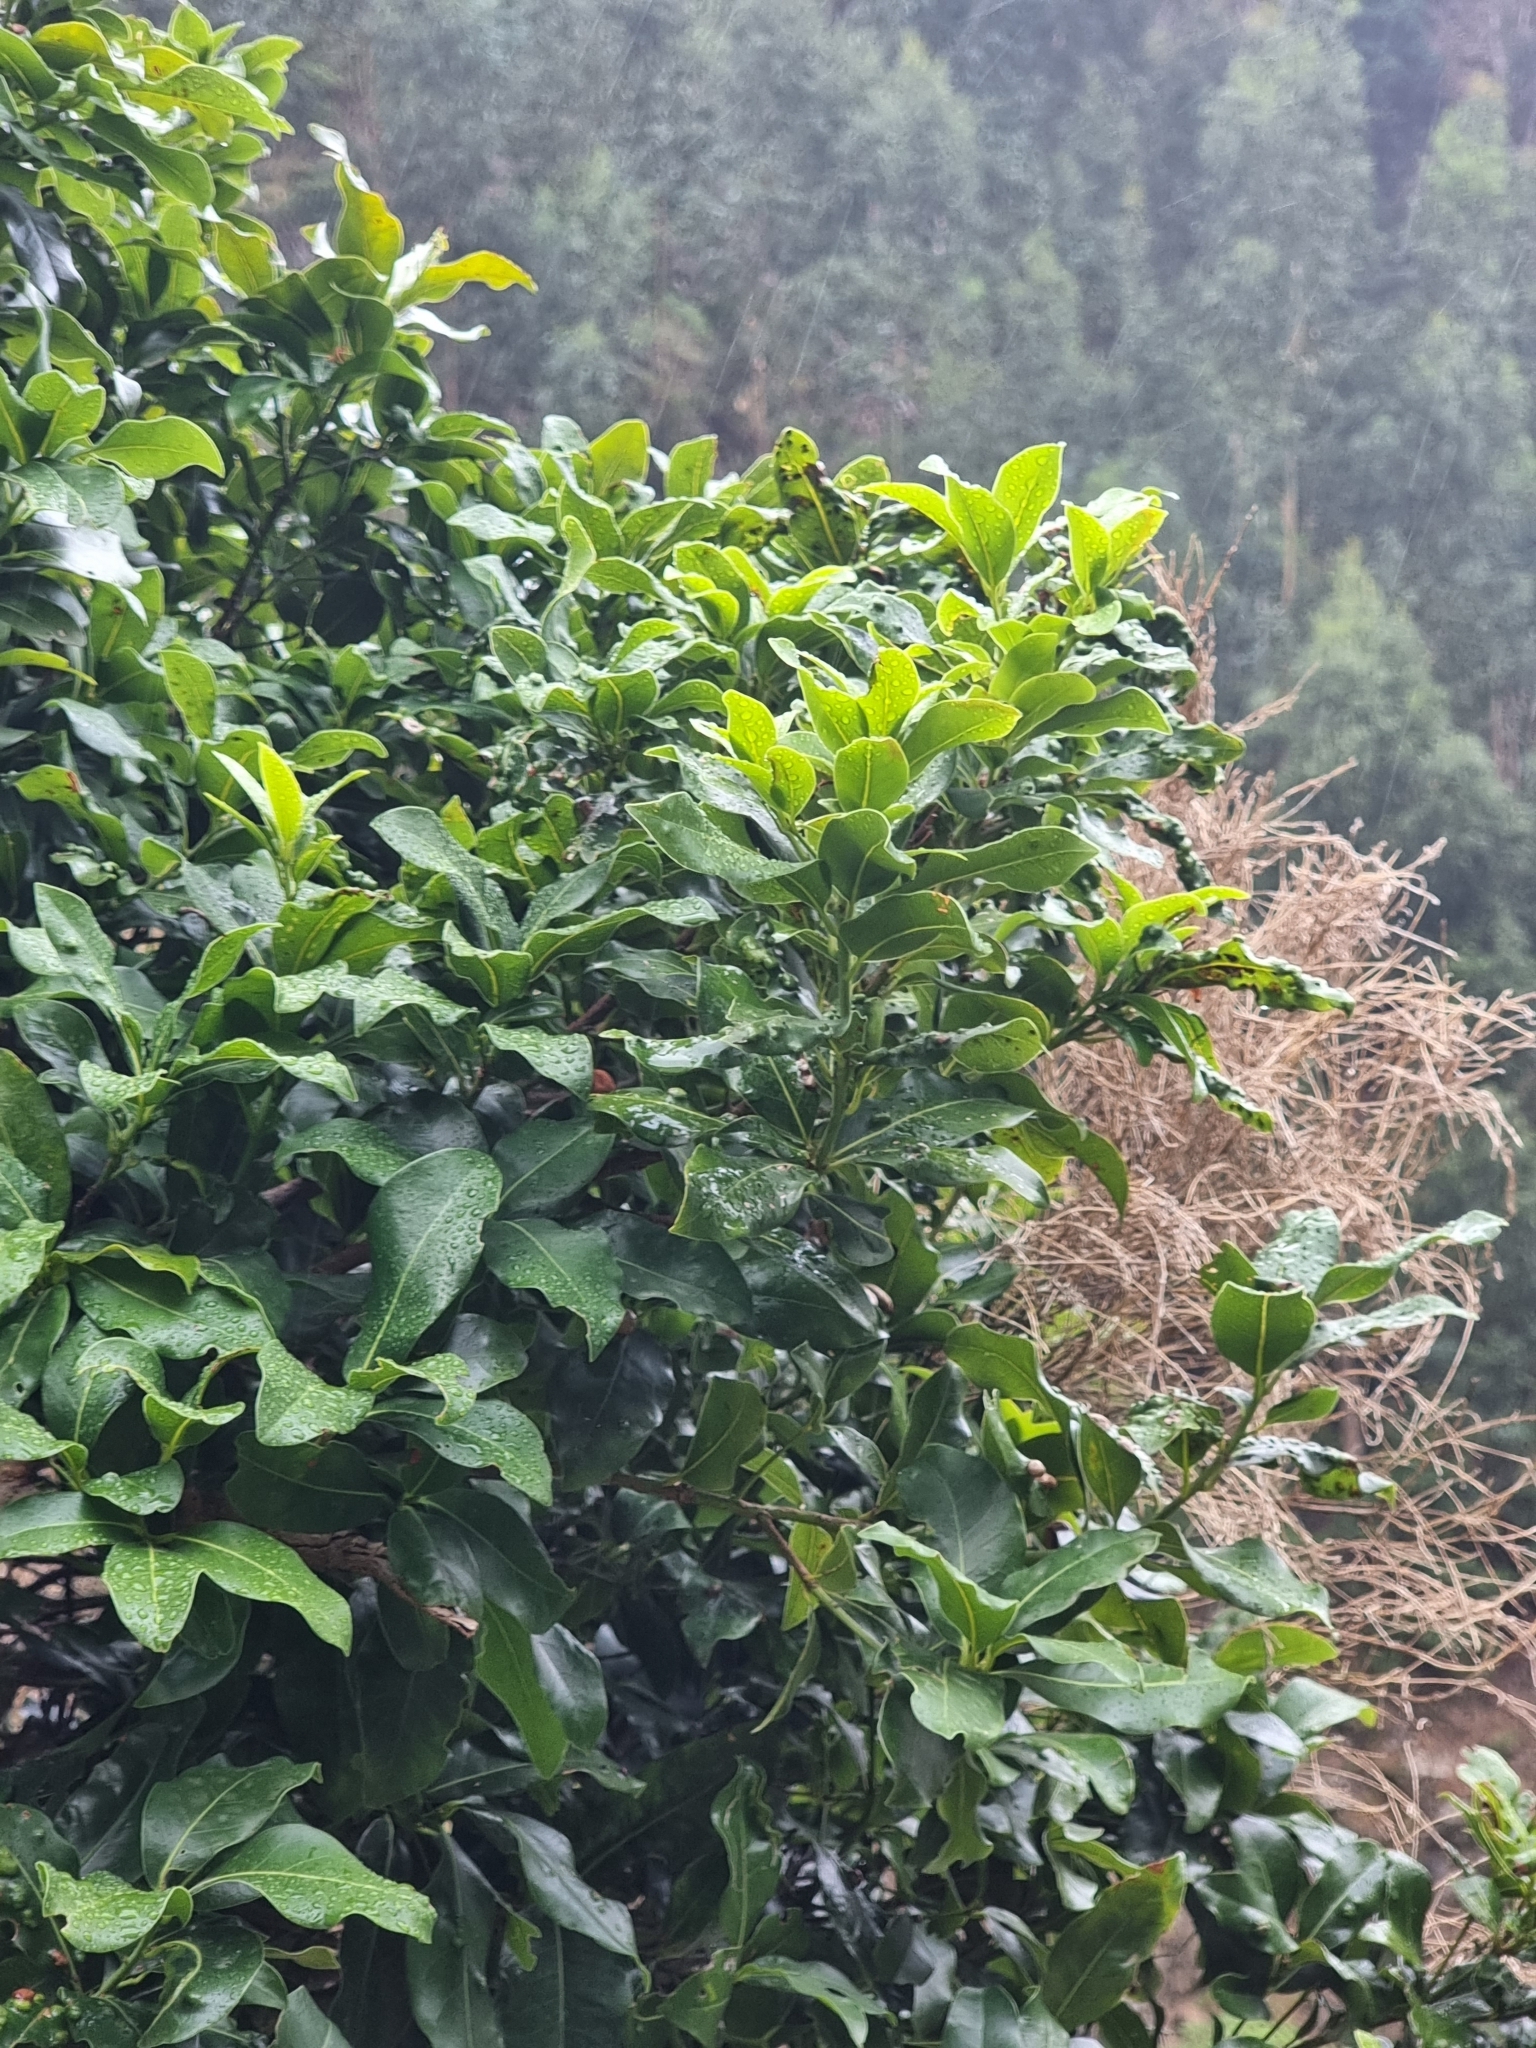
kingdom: Plantae
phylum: Tracheophyta
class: Magnoliopsida
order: Laurales
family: Lauraceae
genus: Apollonias
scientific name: Apollonias barbujana
